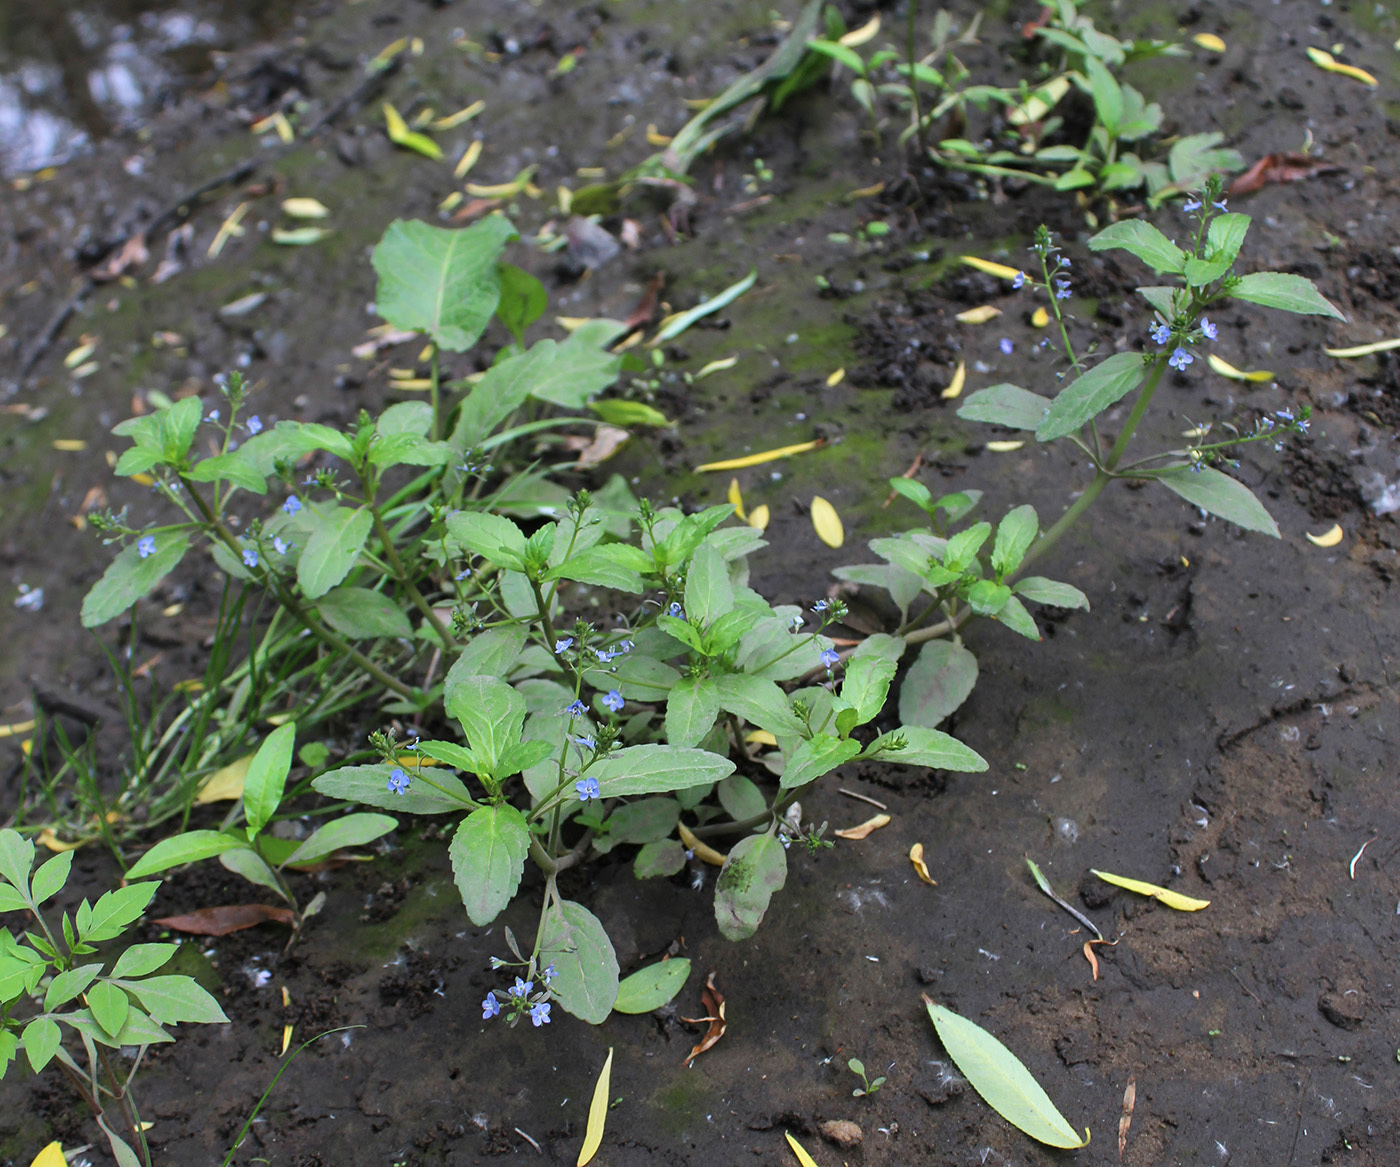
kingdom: Plantae
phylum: Tracheophyta
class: Magnoliopsida
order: Lamiales
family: Plantaginaceae
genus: Veronica
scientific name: Veronica beccabunga
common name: Brooklime
